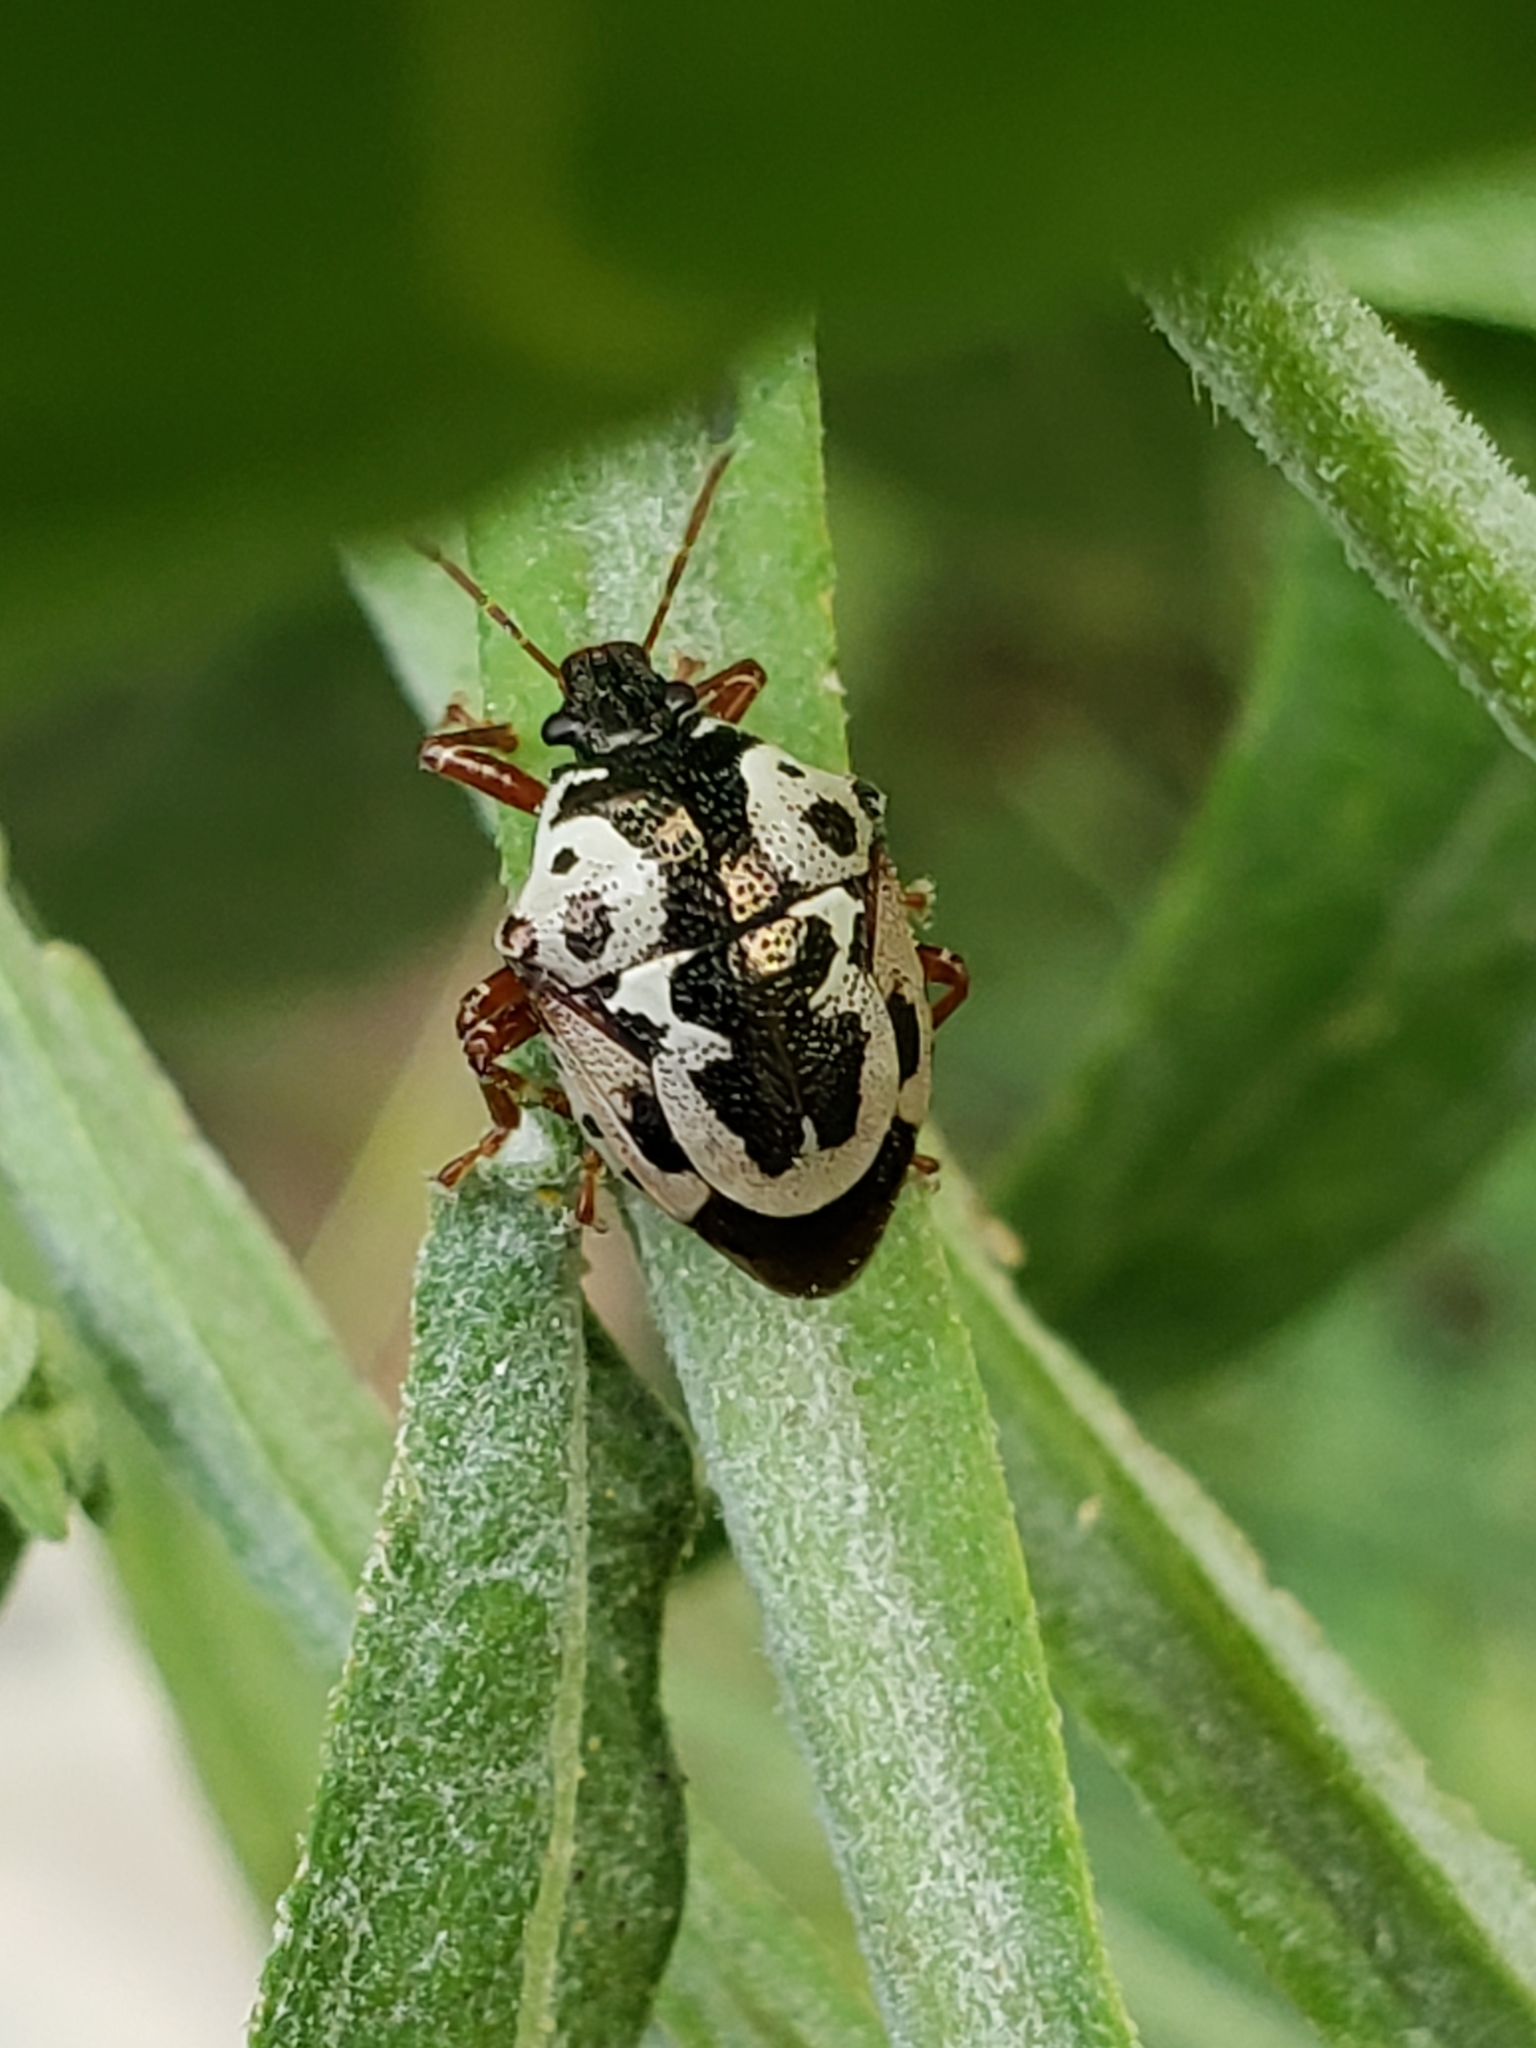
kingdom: Animalia
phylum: Arthropoda
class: Insecta
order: Hemiptera
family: Pentatomidae
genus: Stiretrus
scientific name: Stiretrus anchorago
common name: Anchor stink bug
